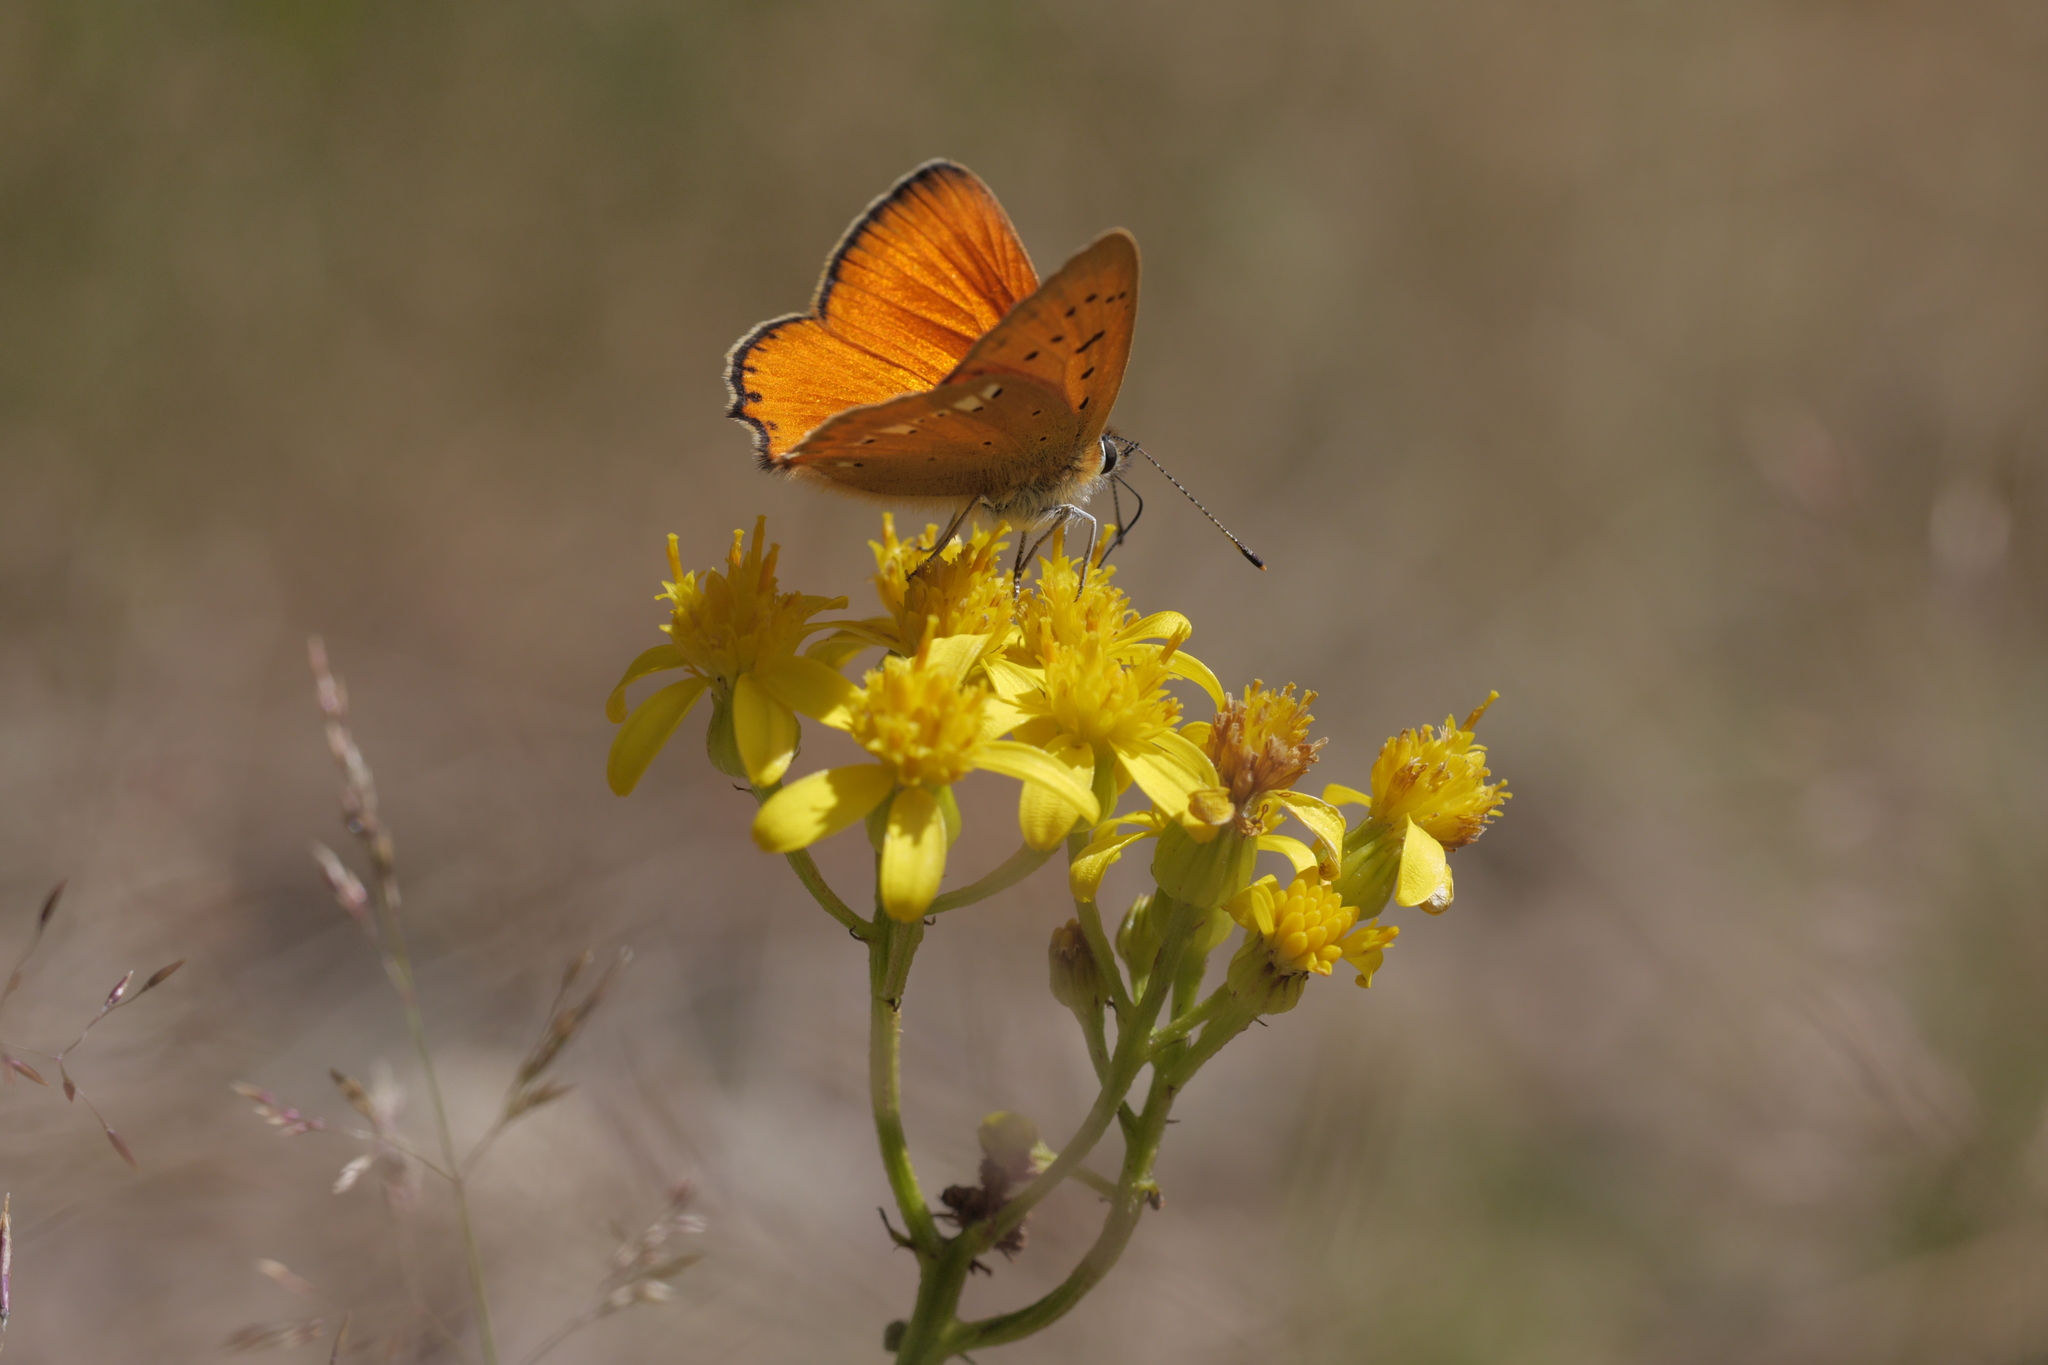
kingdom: Animalia
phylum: Arthropoda
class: Insecta
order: Lepidoptera
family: Lycaenidae
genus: Lycaena
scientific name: Lycaena virgaureae
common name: Scarce copper
